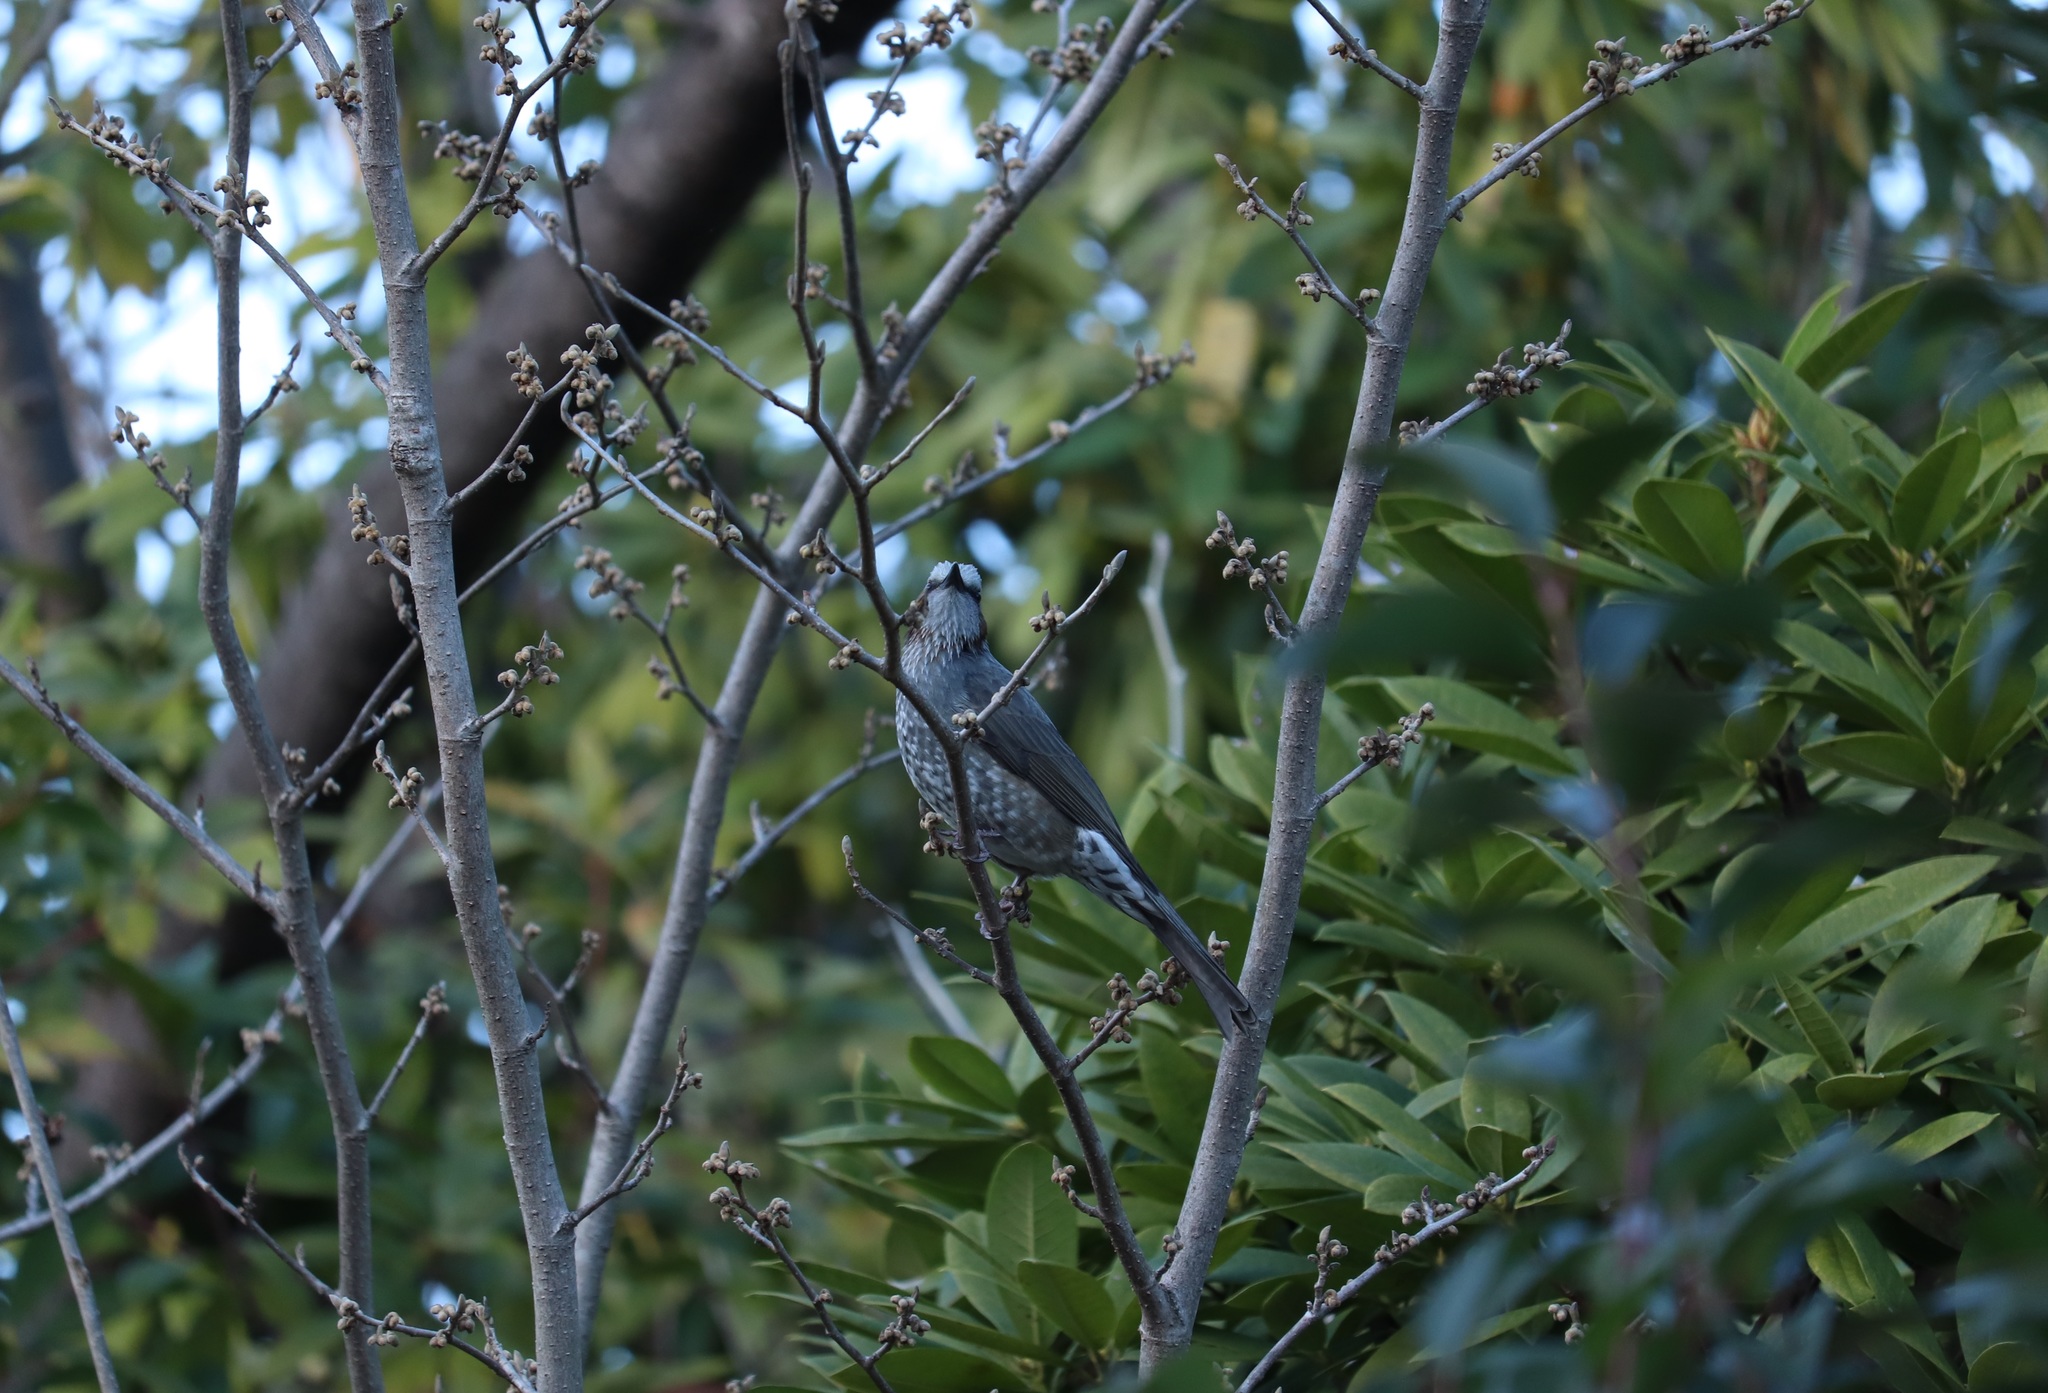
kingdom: Animalia
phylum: Chordata
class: Aves
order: Passeriformes
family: Pycnonotidae
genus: Hypsipetes
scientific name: Hypsipetes amaurotis
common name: Brown-eared bulbul
